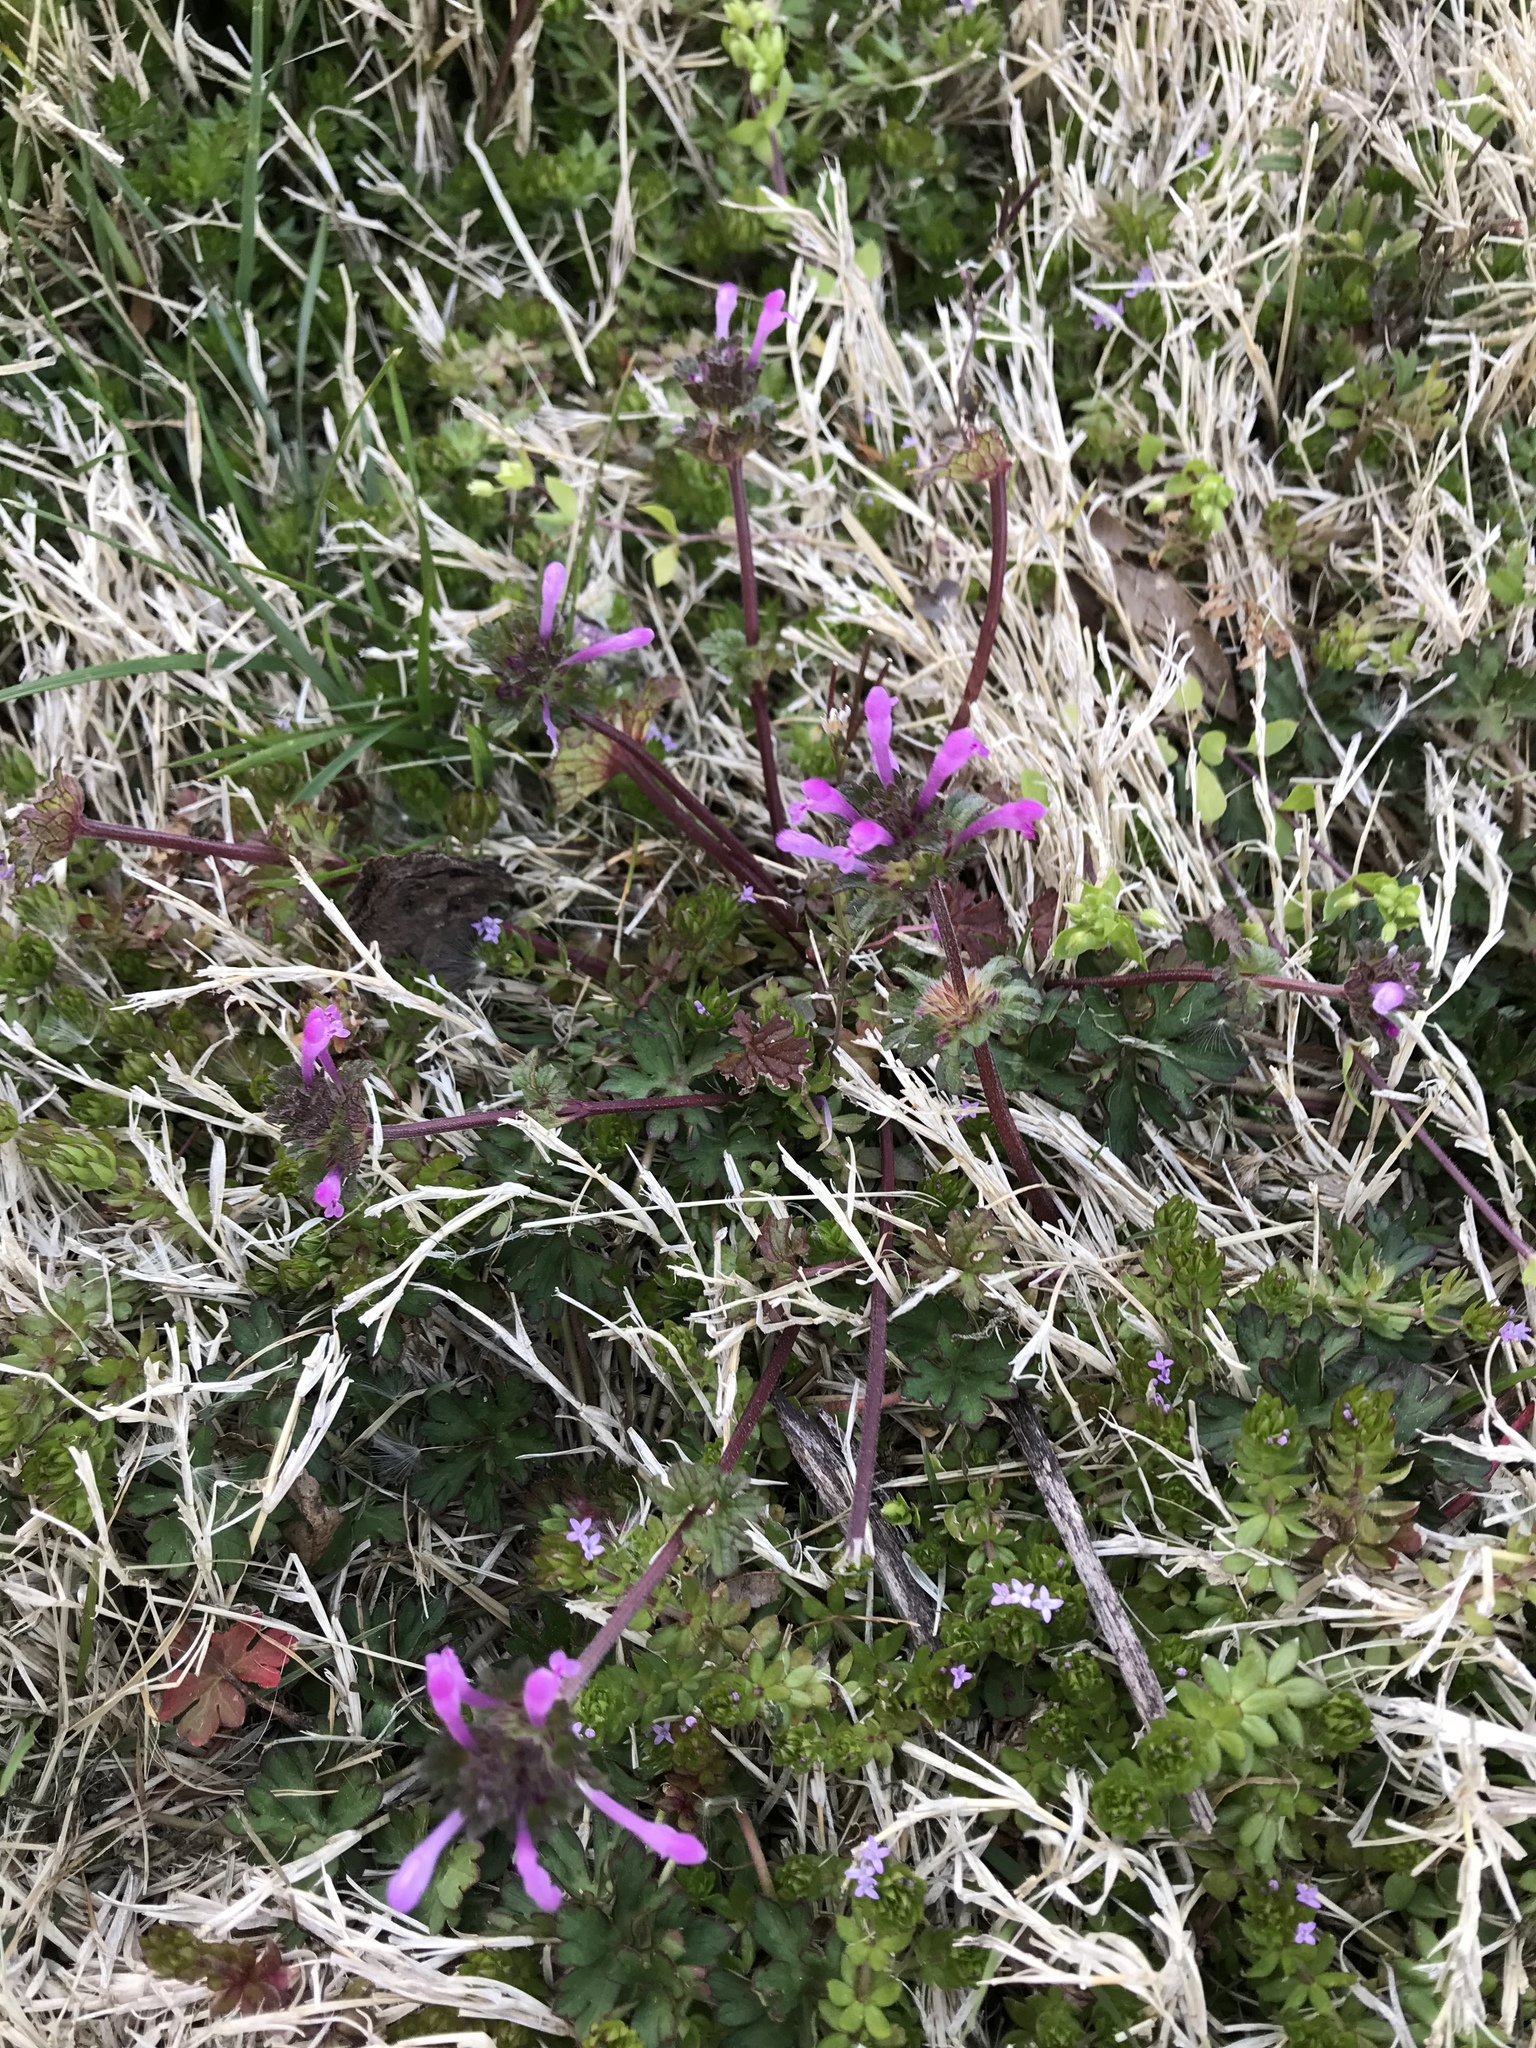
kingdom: Plantae
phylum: Tracheophyta
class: Magnoliopsida
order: Lamiales
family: Lamiaceae
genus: Lamium
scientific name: Lamium amplexicaule
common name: Henbit dead-nettle
